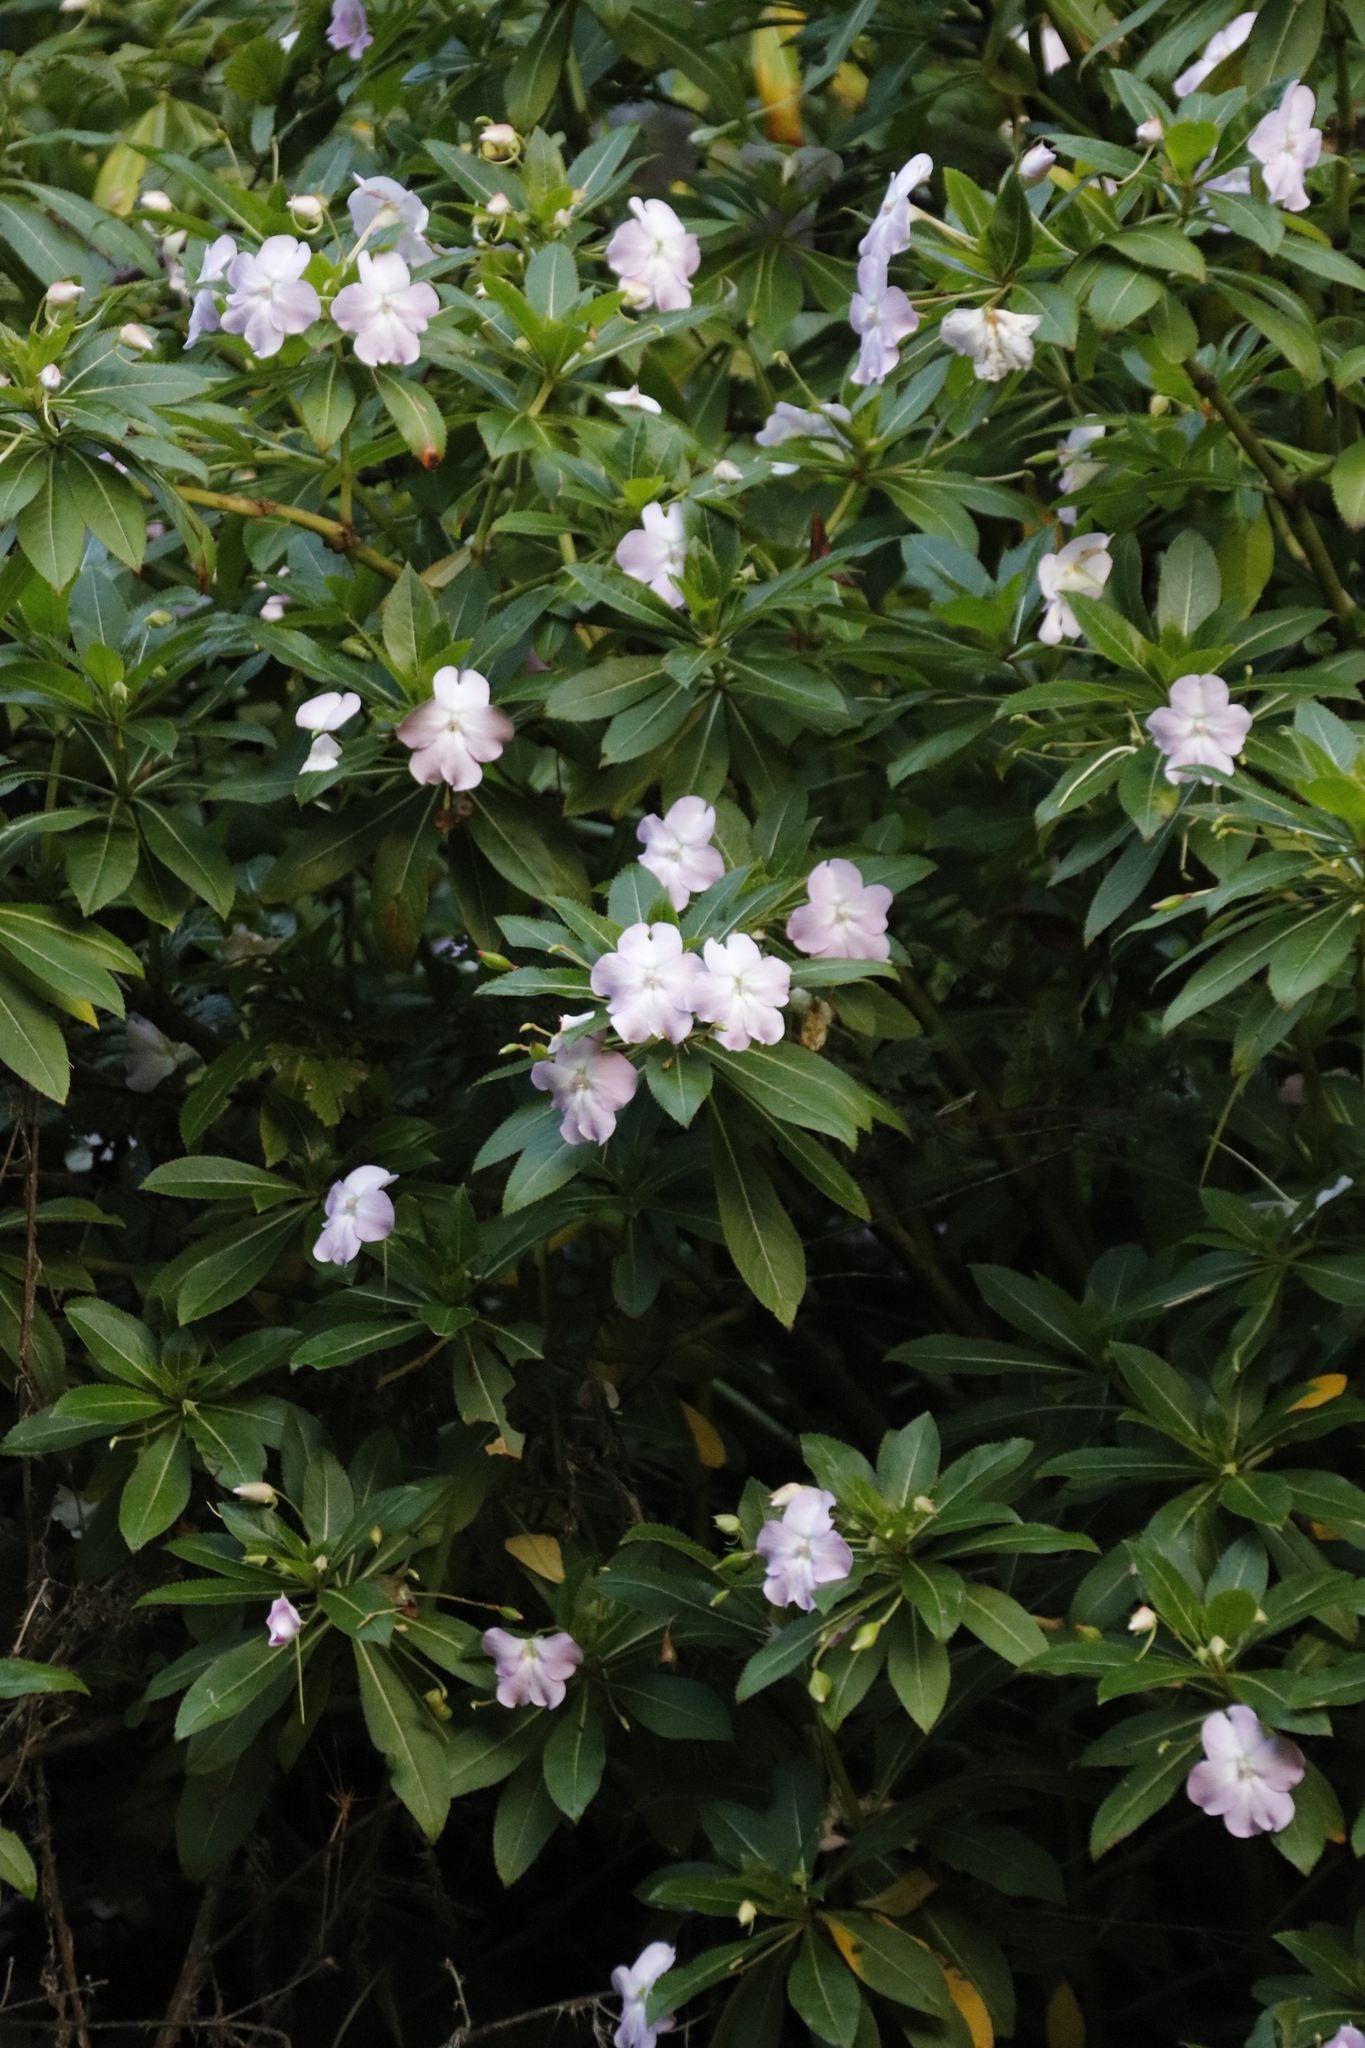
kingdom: Plantae
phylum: Tracheophyta
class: Magnoliopsida
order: Ericales
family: Balsaminaceae
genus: Impatiens
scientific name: Impatiens sodenii
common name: Oliver's touch-me-not
